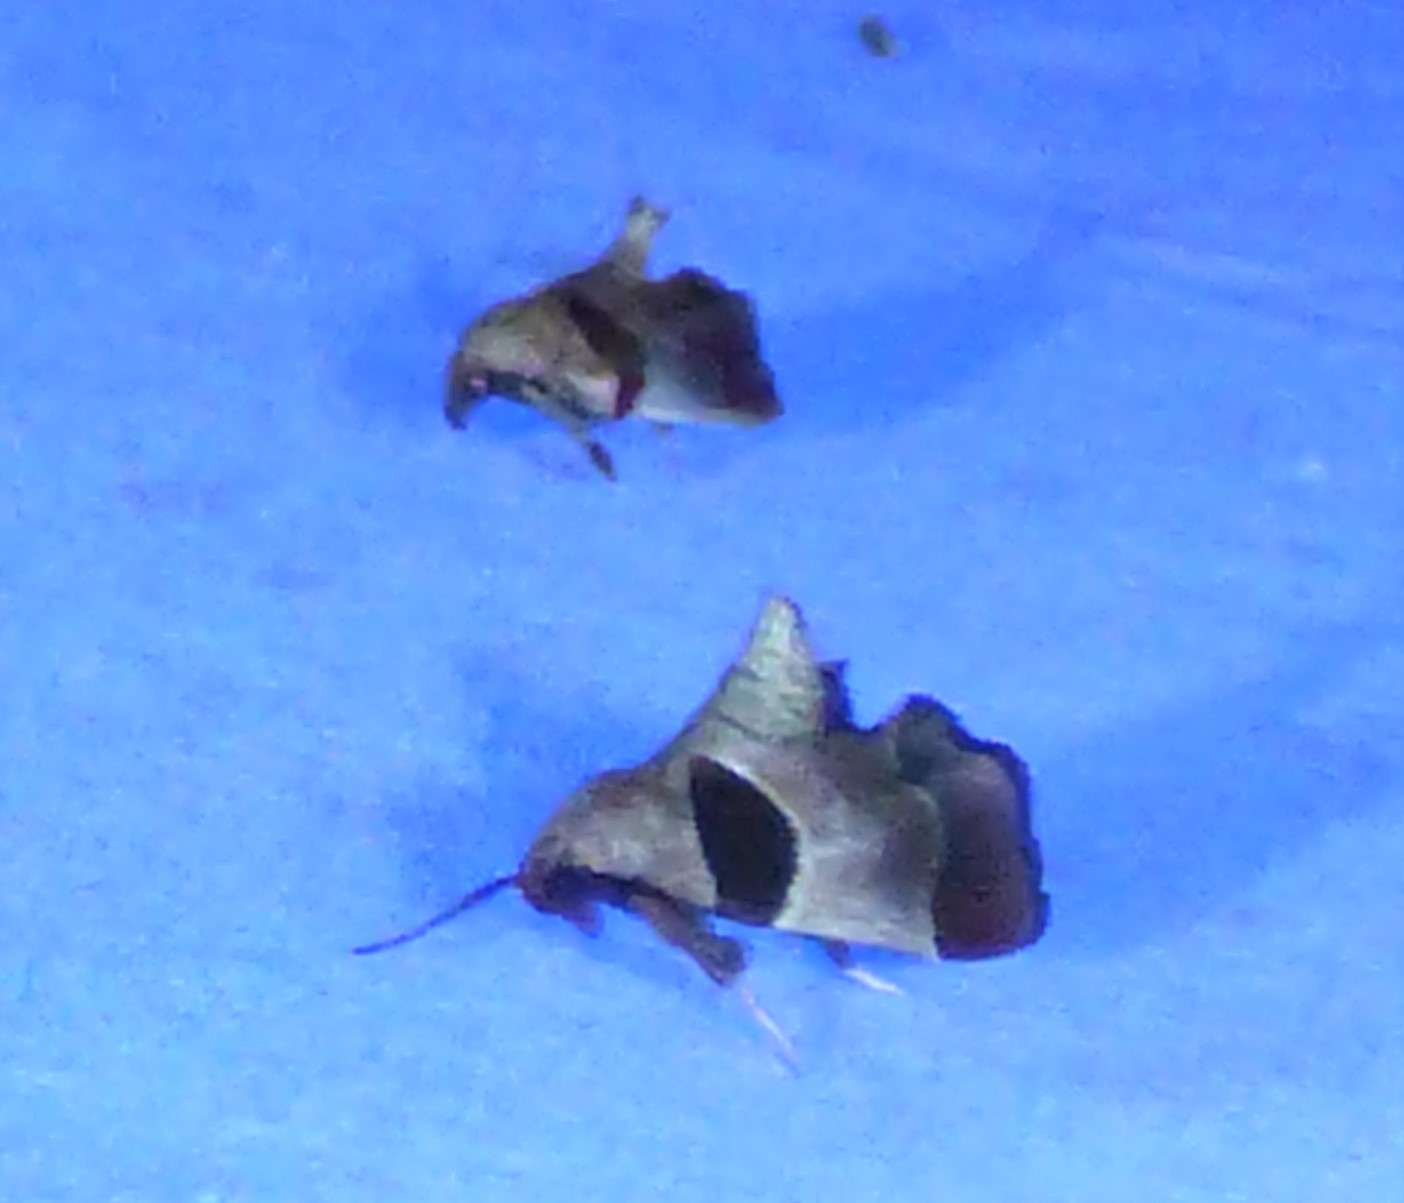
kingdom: Animalia
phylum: Arthropoda
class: Insecta
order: Lepidoptera
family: Pyralidae
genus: Tosale
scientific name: Tosale oviplagalis
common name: Dimorphic tosale moth
